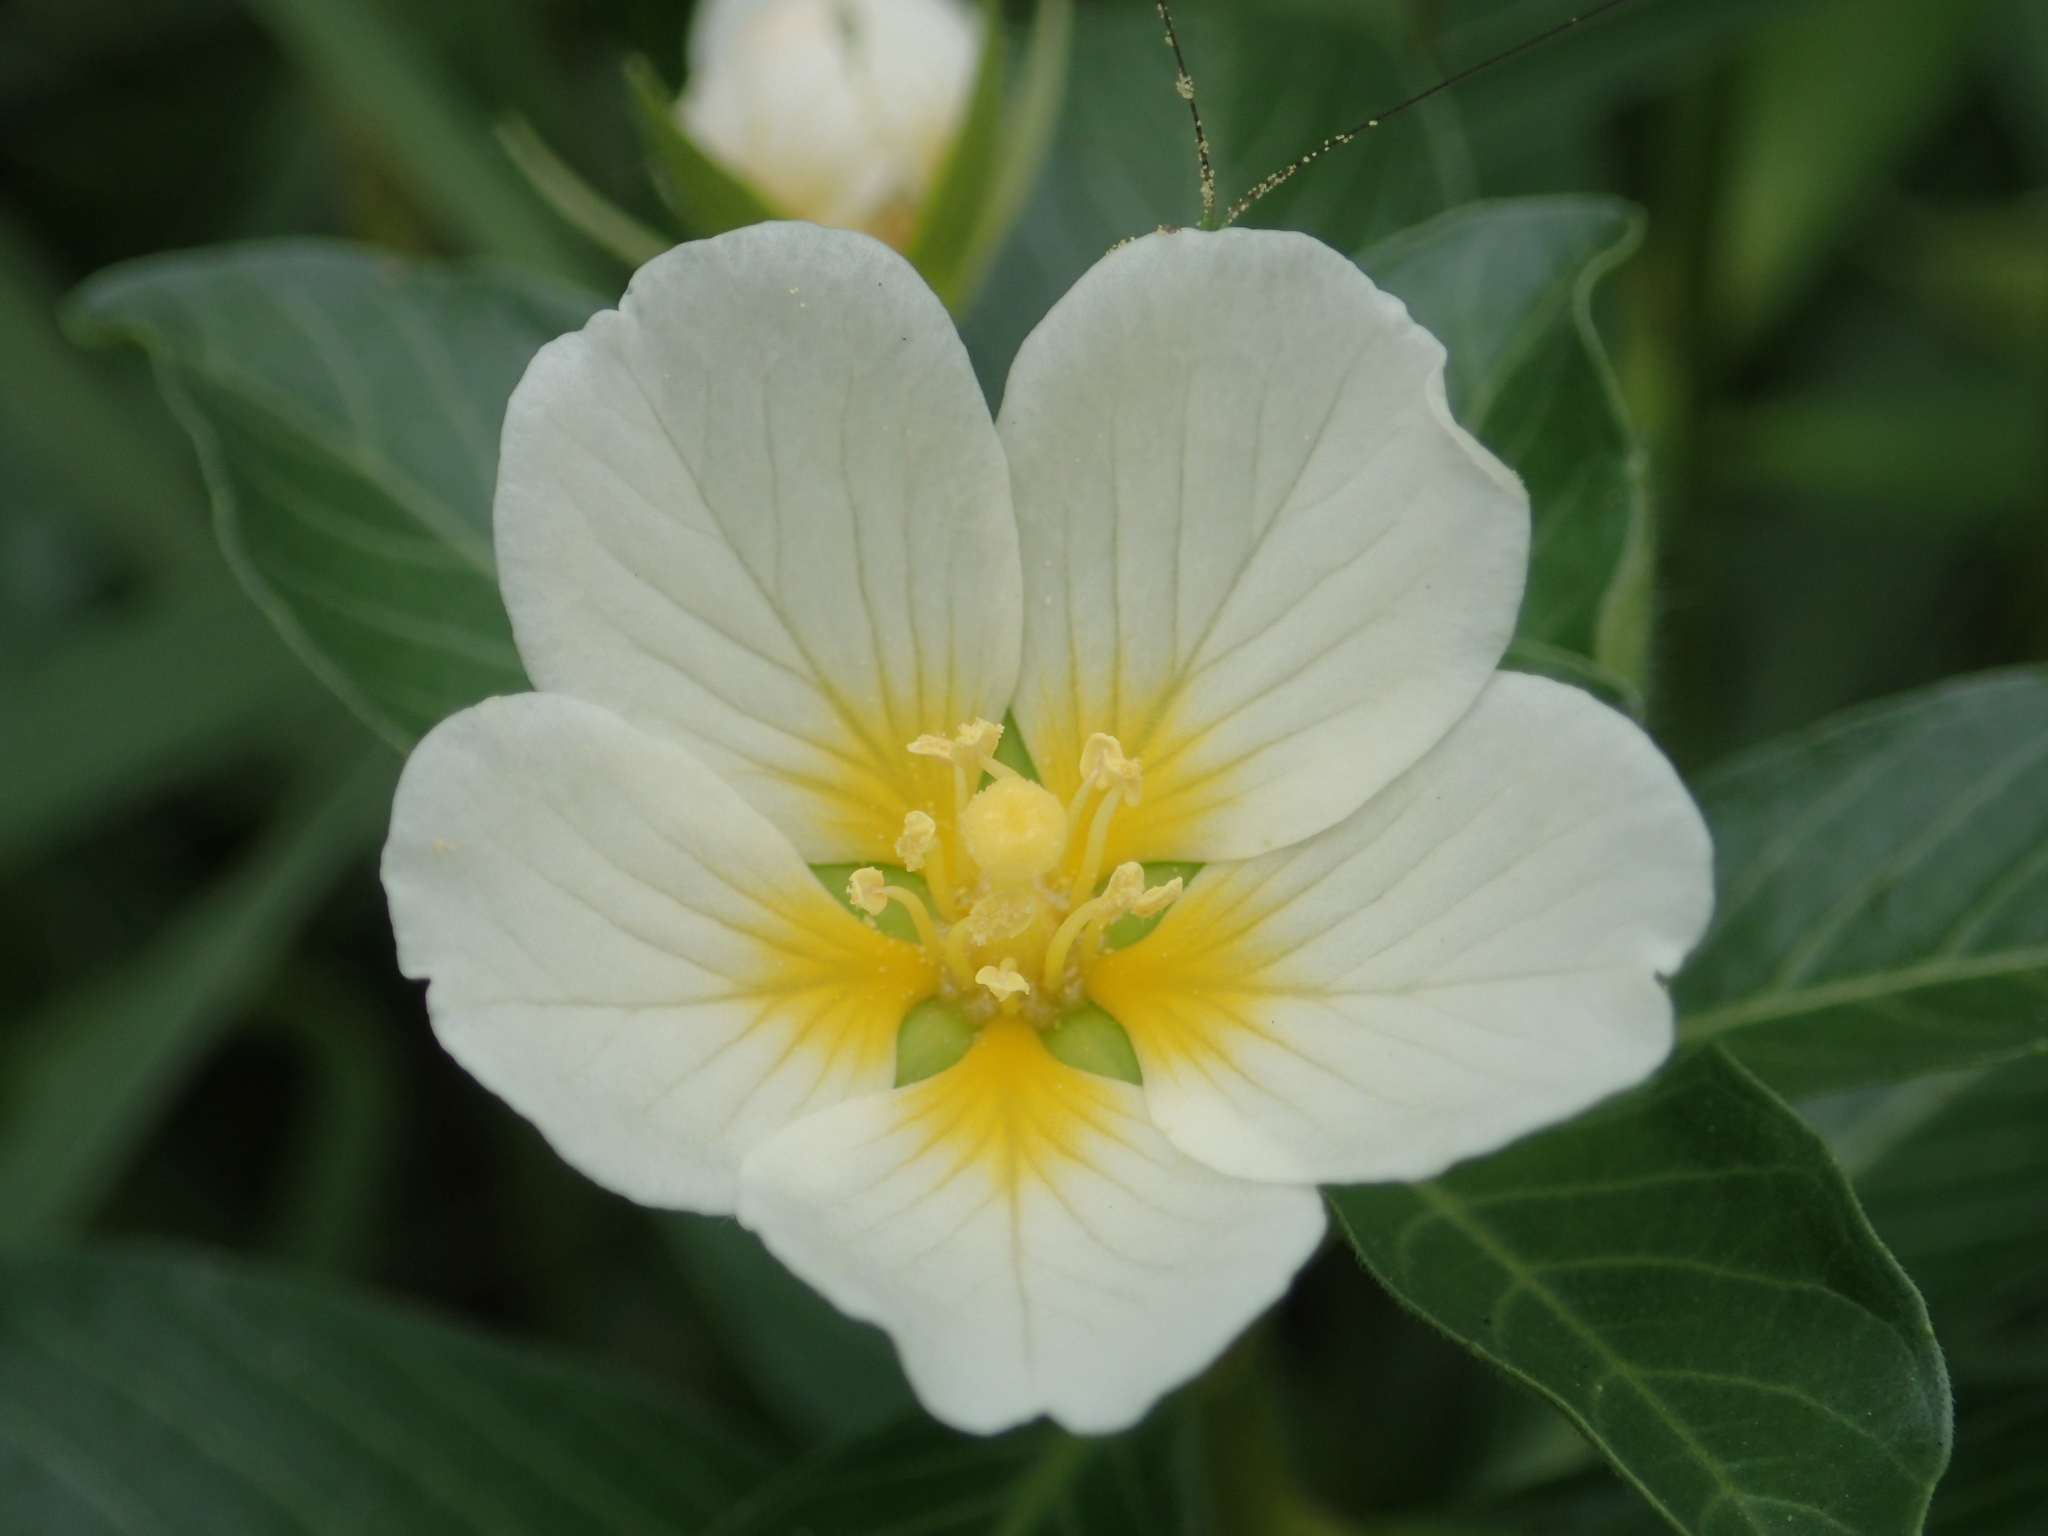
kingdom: Plantae
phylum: Tracheophyta
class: Magnoliopsida
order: Myrtales
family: Onagraceae
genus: Ludwigia
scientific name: Ludwigia adscendens
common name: Creeping water primrose
